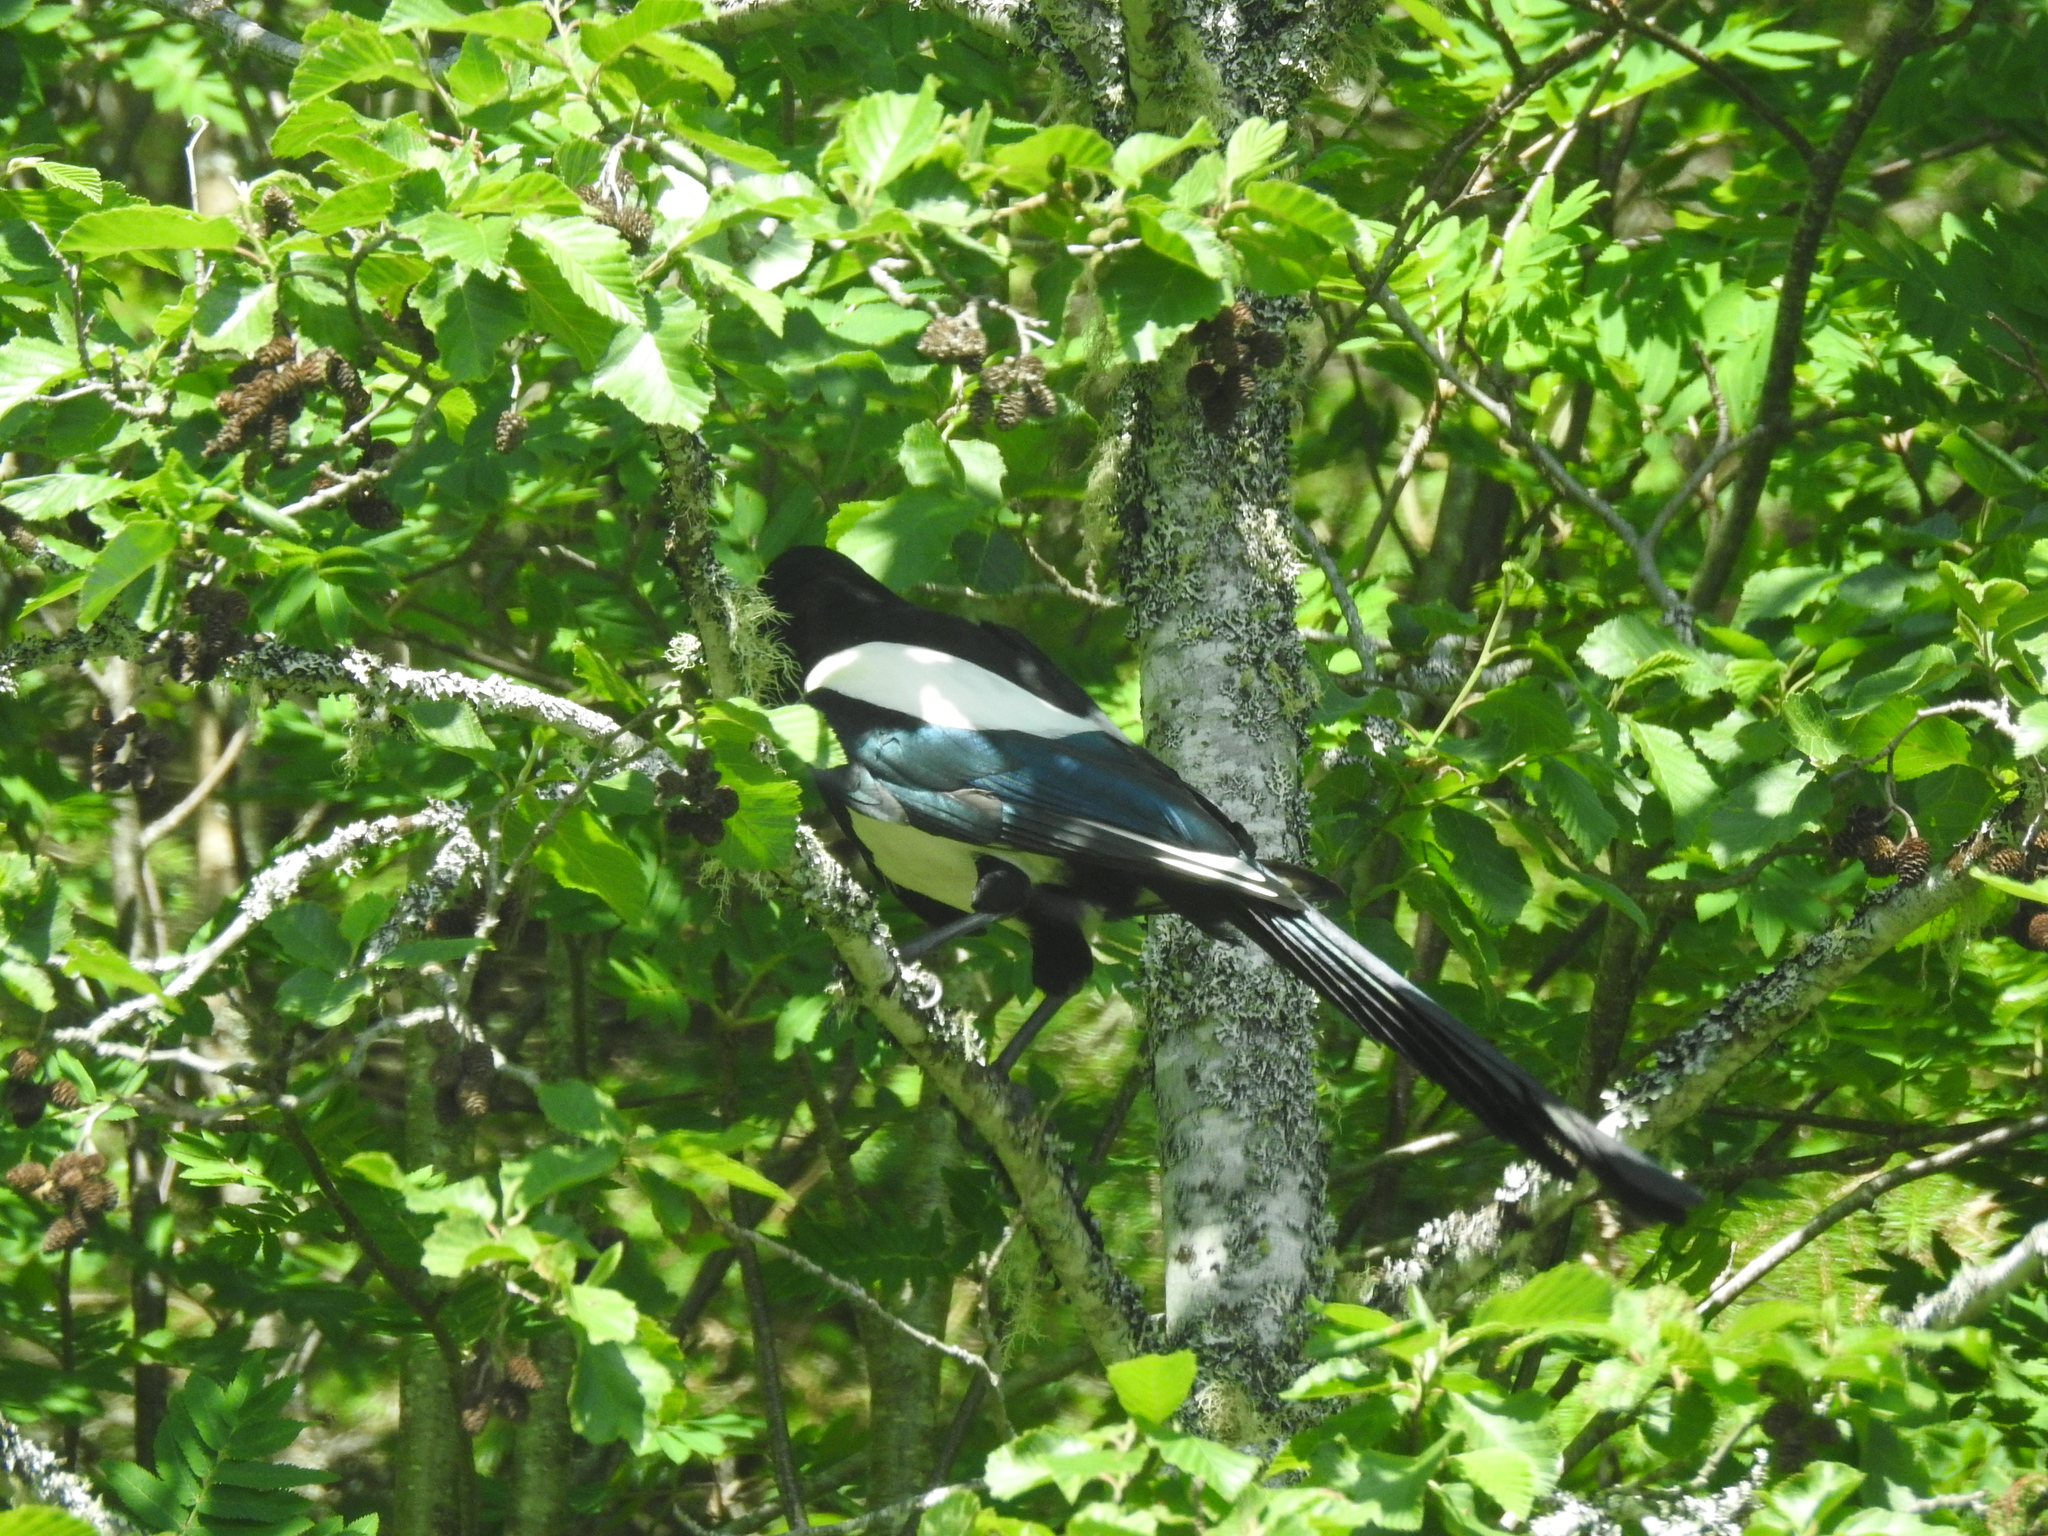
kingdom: Animalia
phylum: Chordata
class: Aves
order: Passeriformes
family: Corvidae
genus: Pica
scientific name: Pica pica
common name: Eurasian magpie
